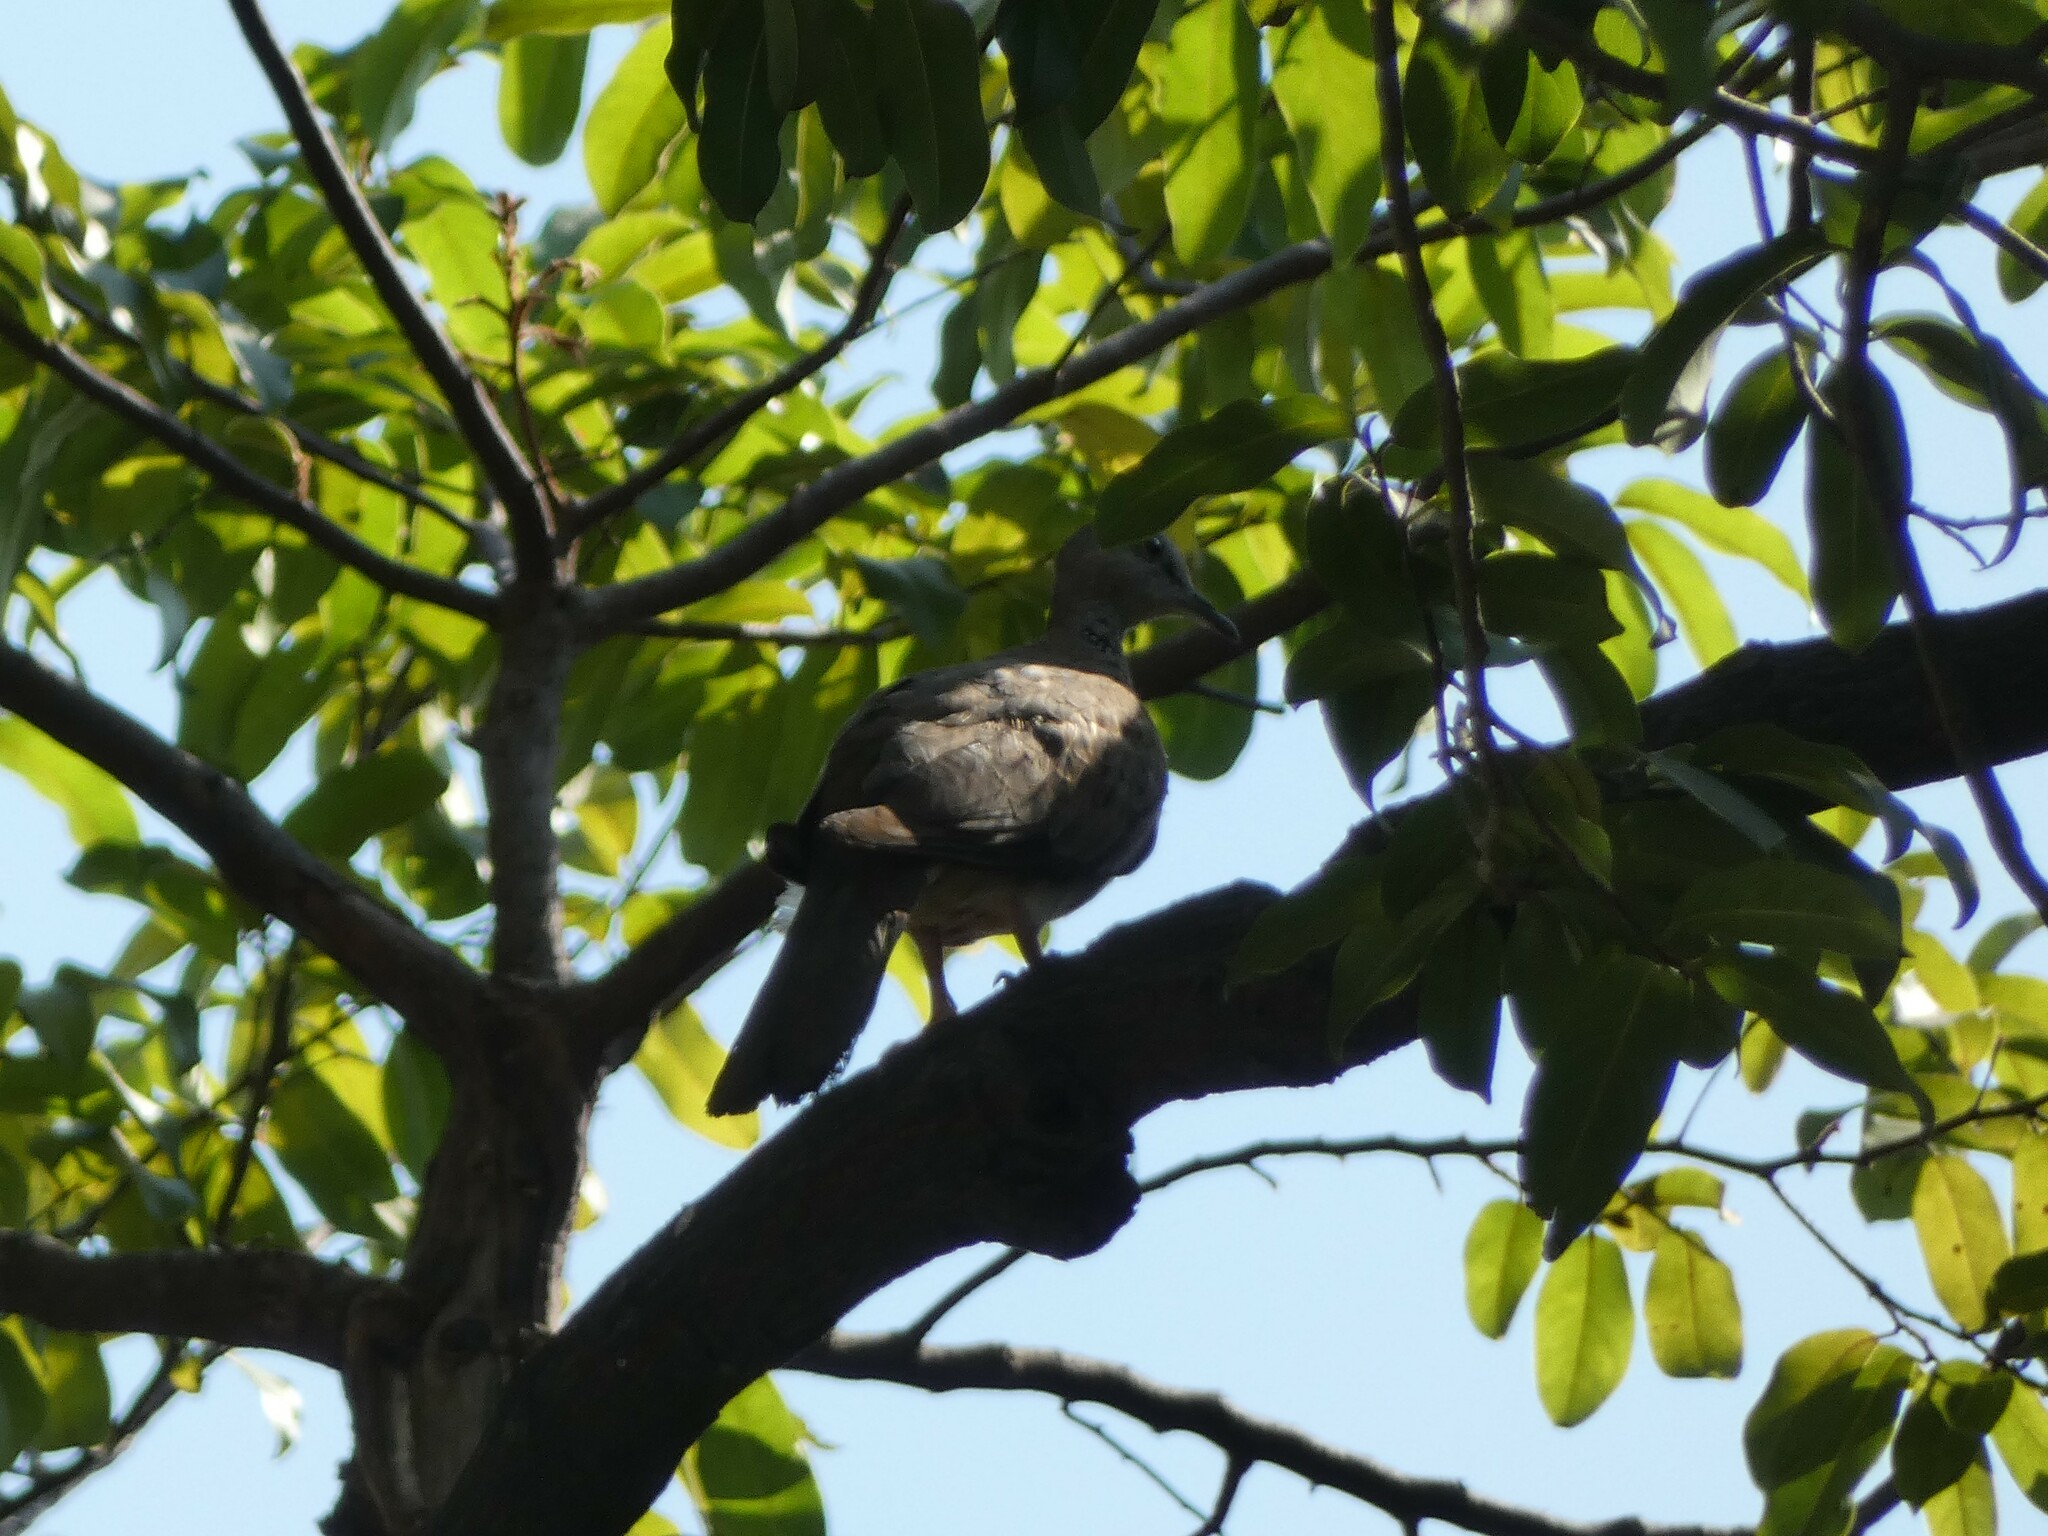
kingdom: Animalia
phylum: Chordata
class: Aves
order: Columbiformes
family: Columbidae
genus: Spilopelia
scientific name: Spilopelia chinensis
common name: Spotted dove
